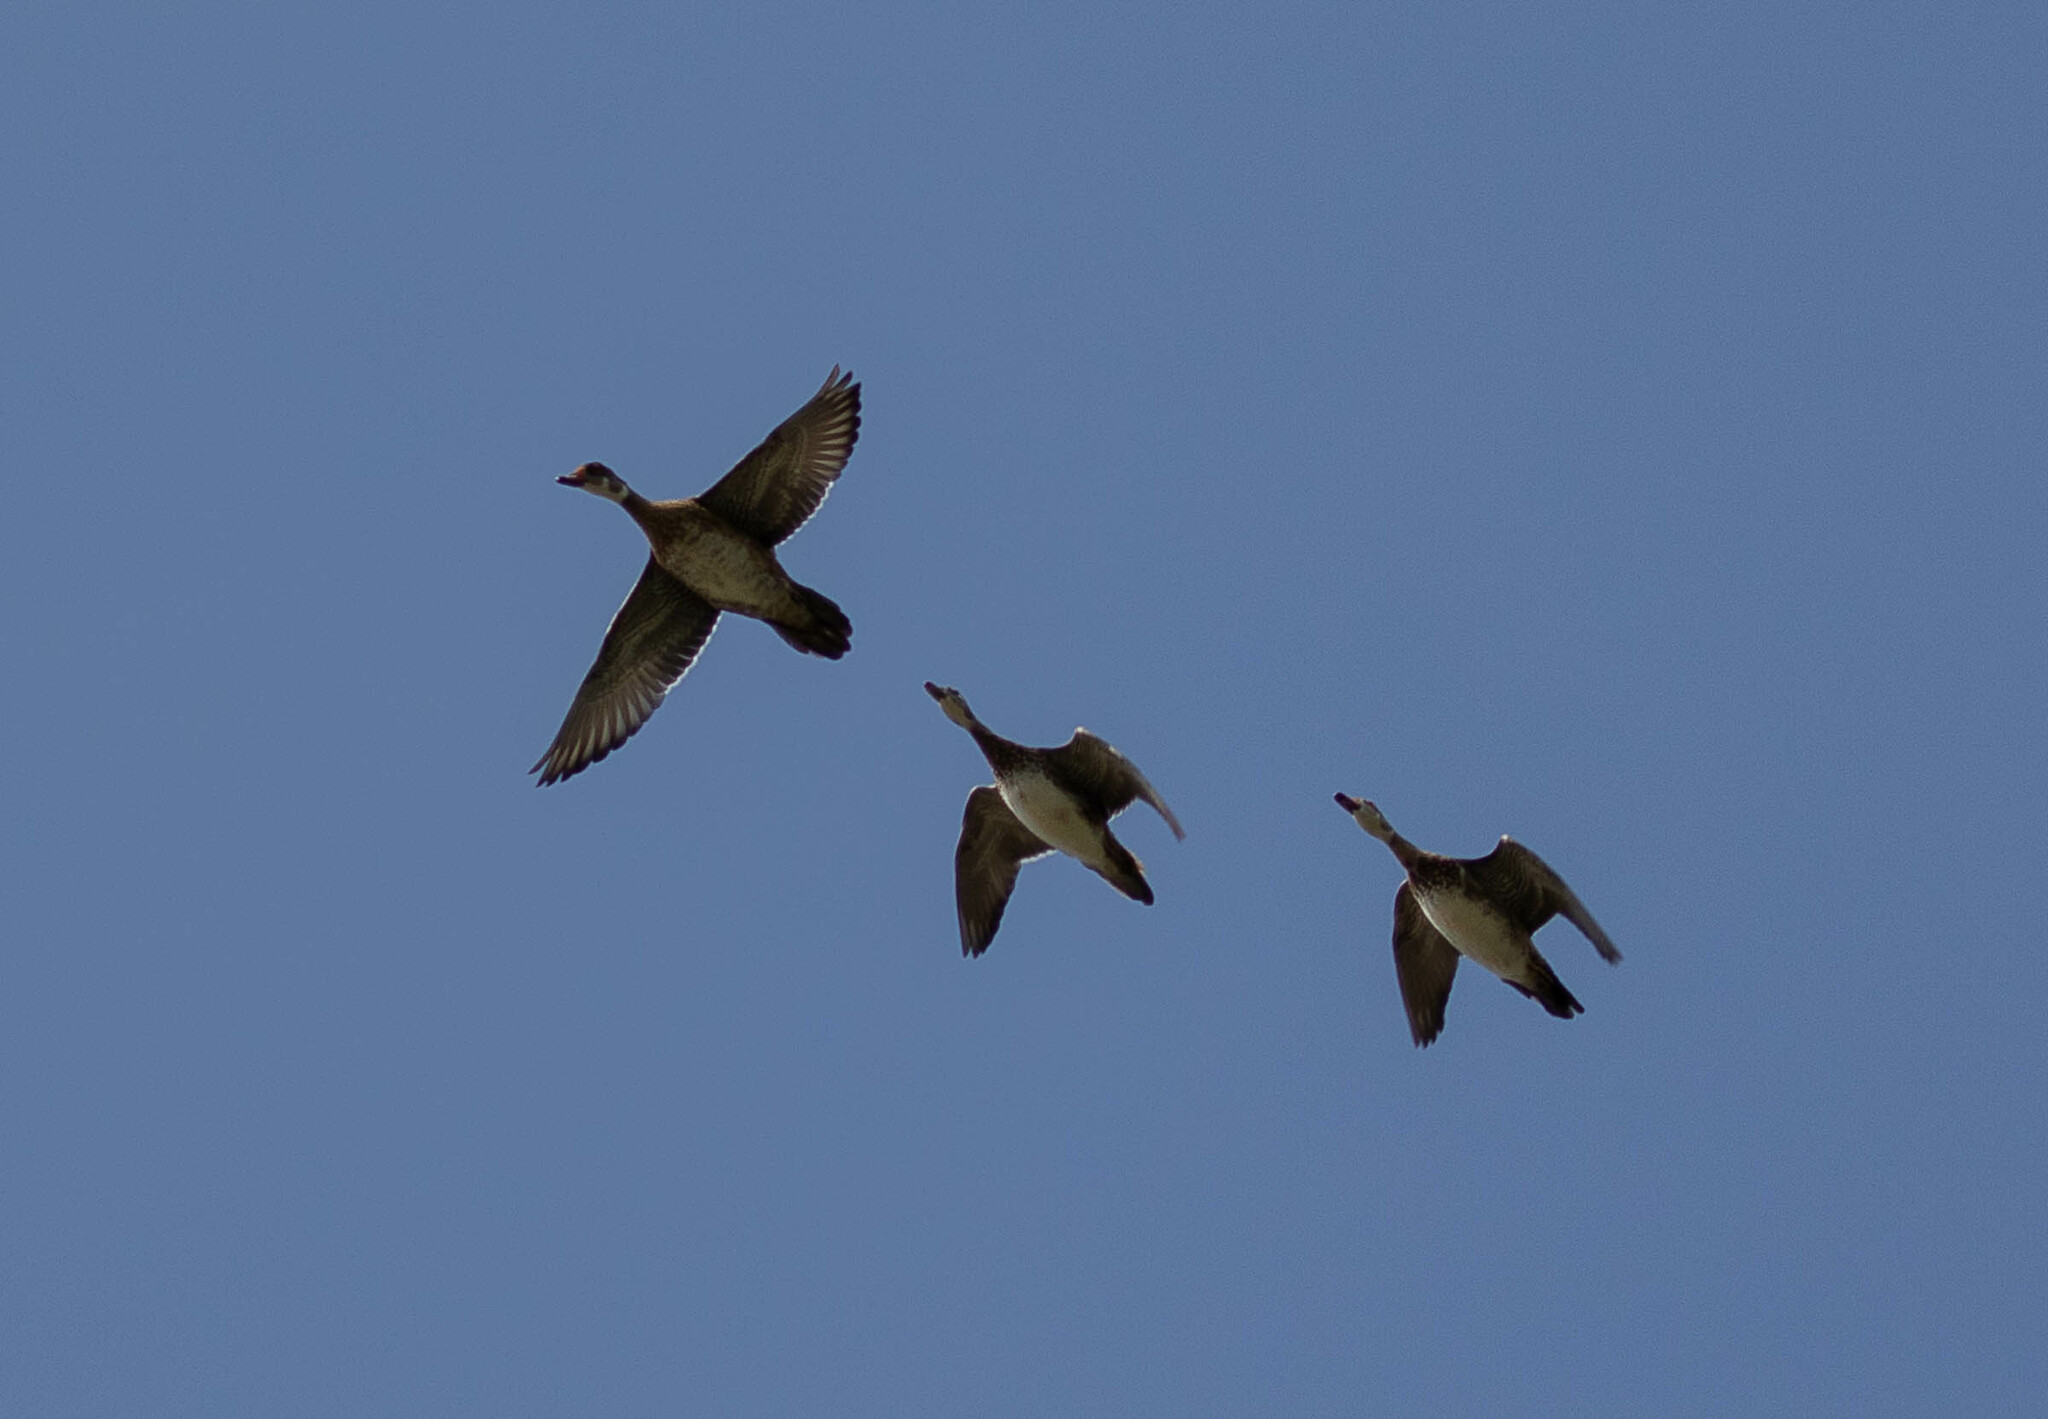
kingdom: Animalia
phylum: Chordata
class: Aves
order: Anseriformes
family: Anatidae
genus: Aix
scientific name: Aix sponsa
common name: Wood duck
